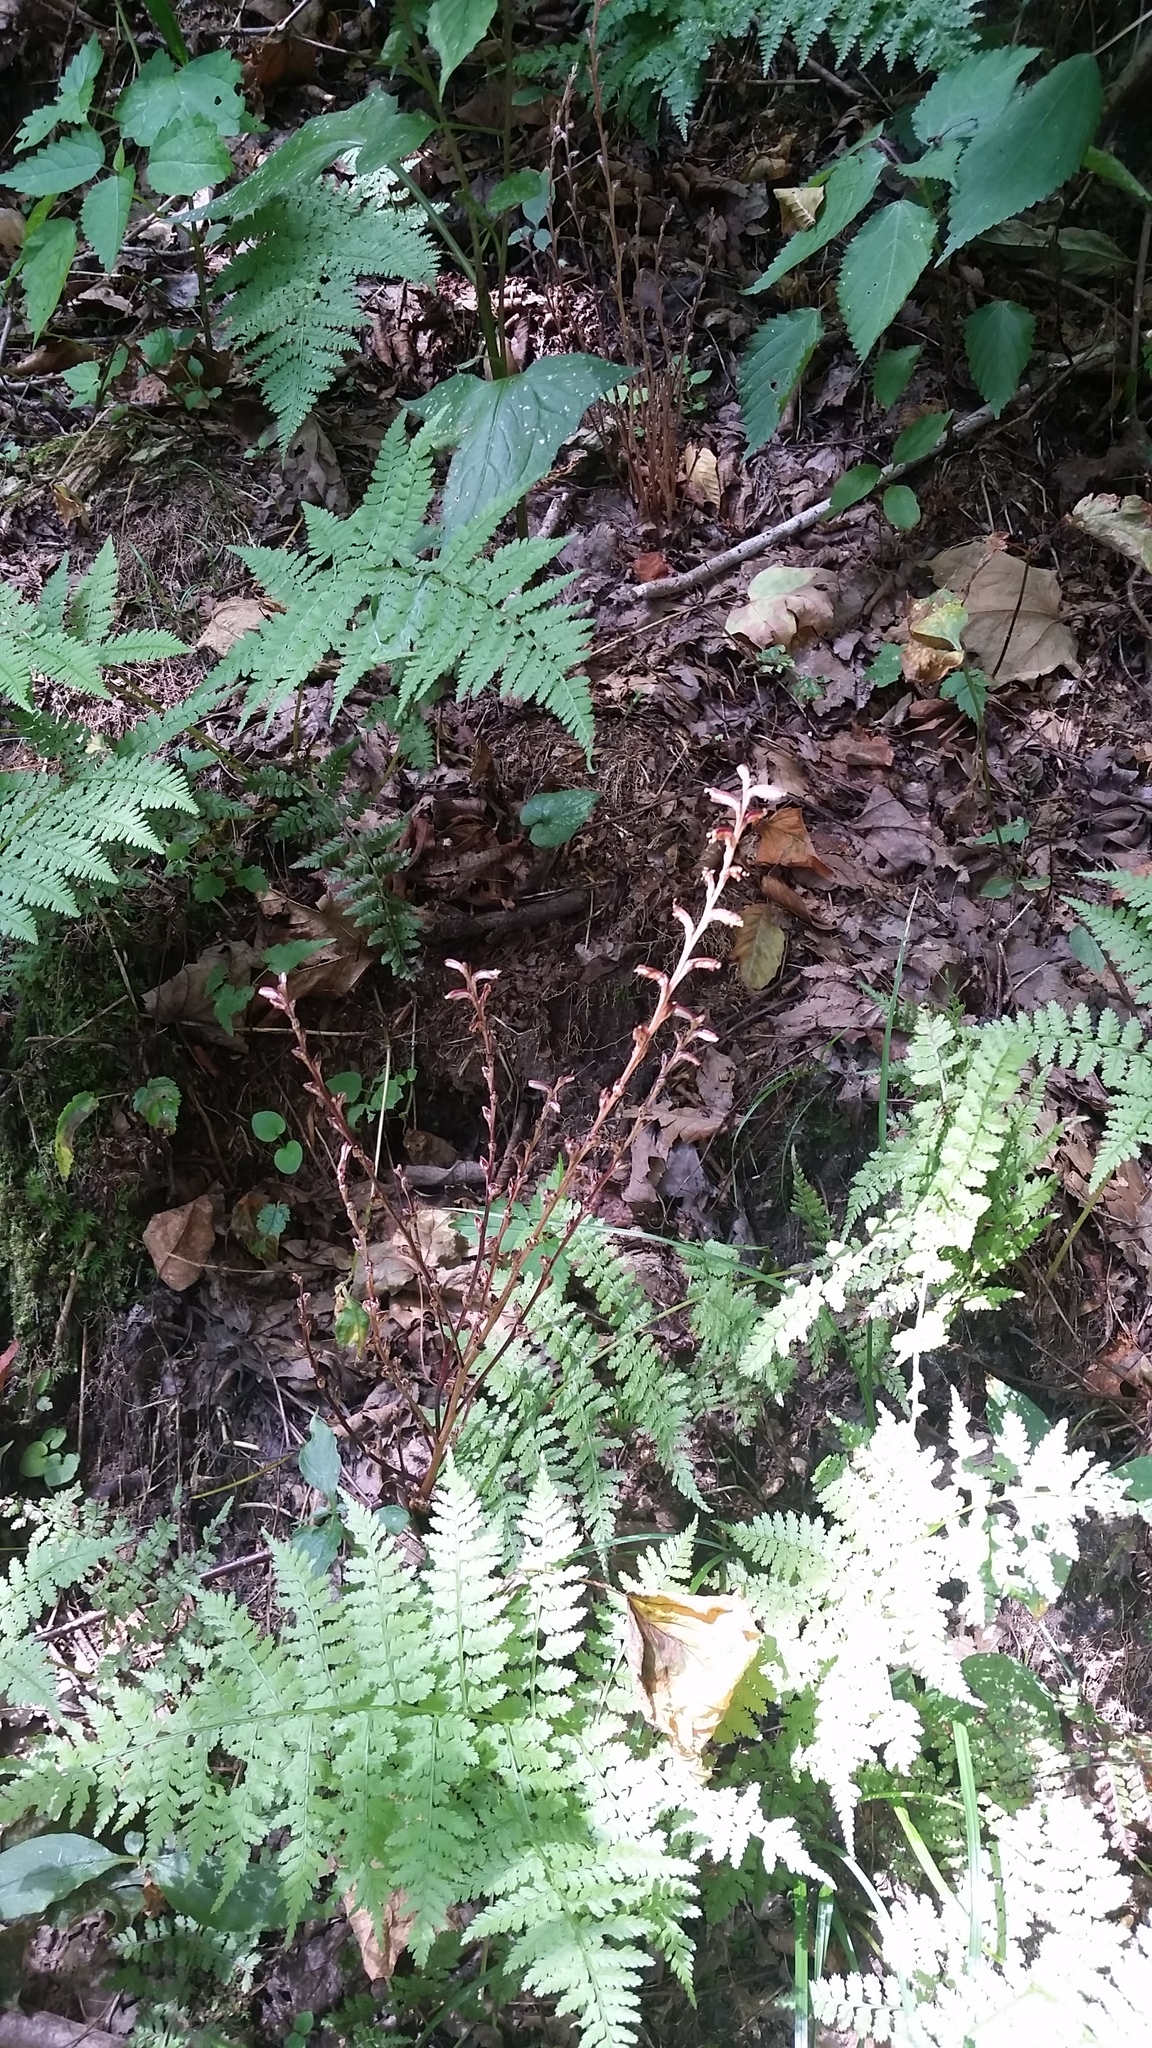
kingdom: Plantae
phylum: Tracheophyta
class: Magnoliopsida
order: Lamiales
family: Orobanchaceae
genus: Epifagus
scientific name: Epifagus virginiana
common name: Beechdrops
